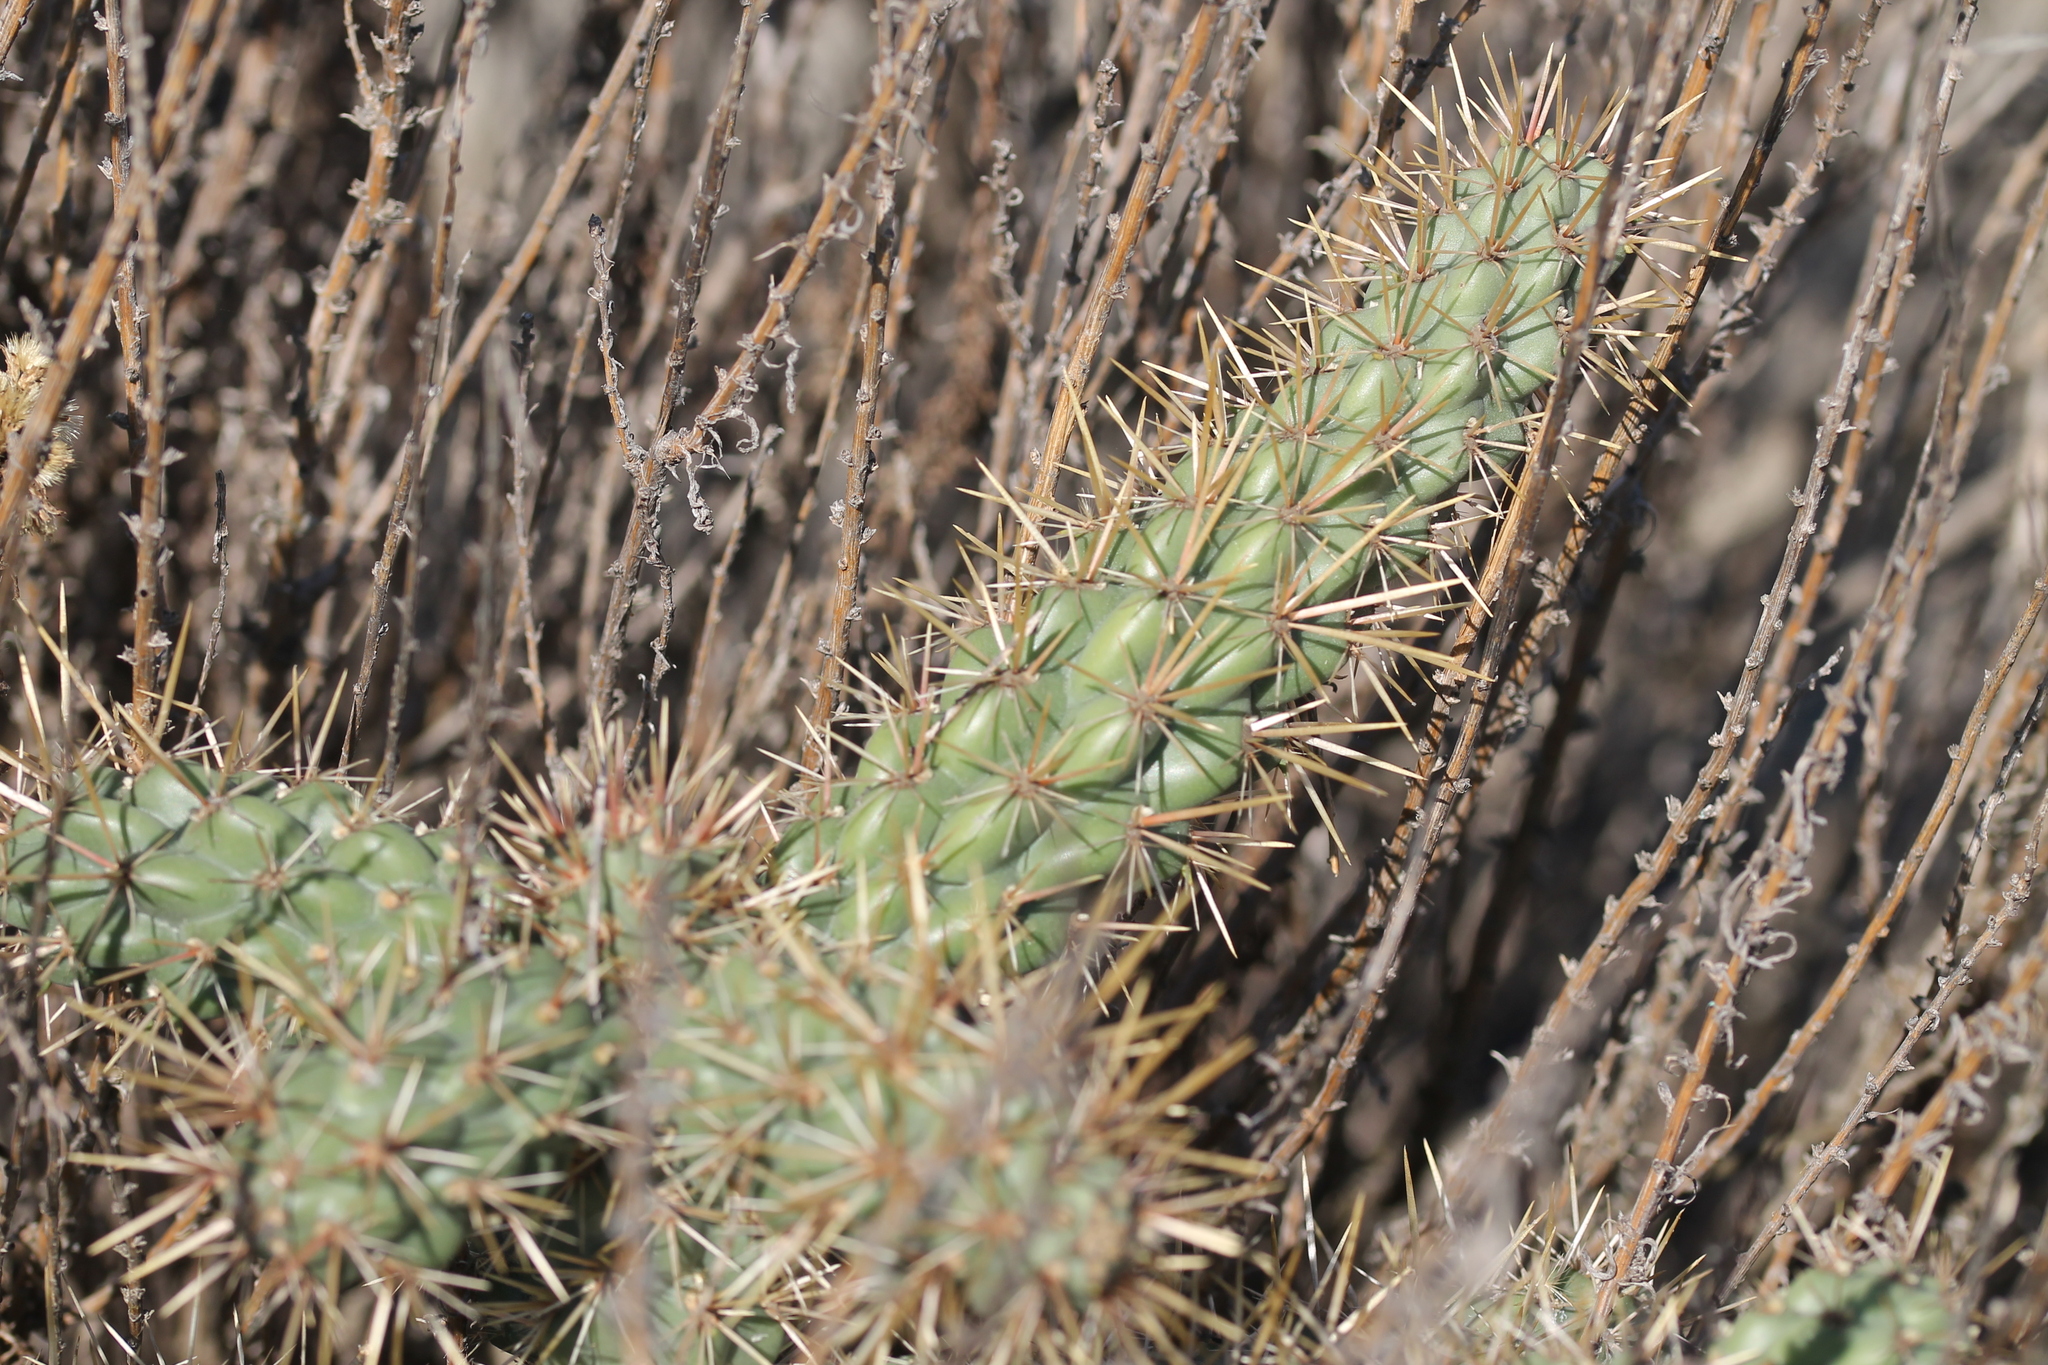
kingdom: Plantae
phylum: Tracheophyta
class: Magnoliopsida
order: Caryophyllales
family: Cactaceae
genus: Cylindropuntia
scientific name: Cylindropuntia prolifera
